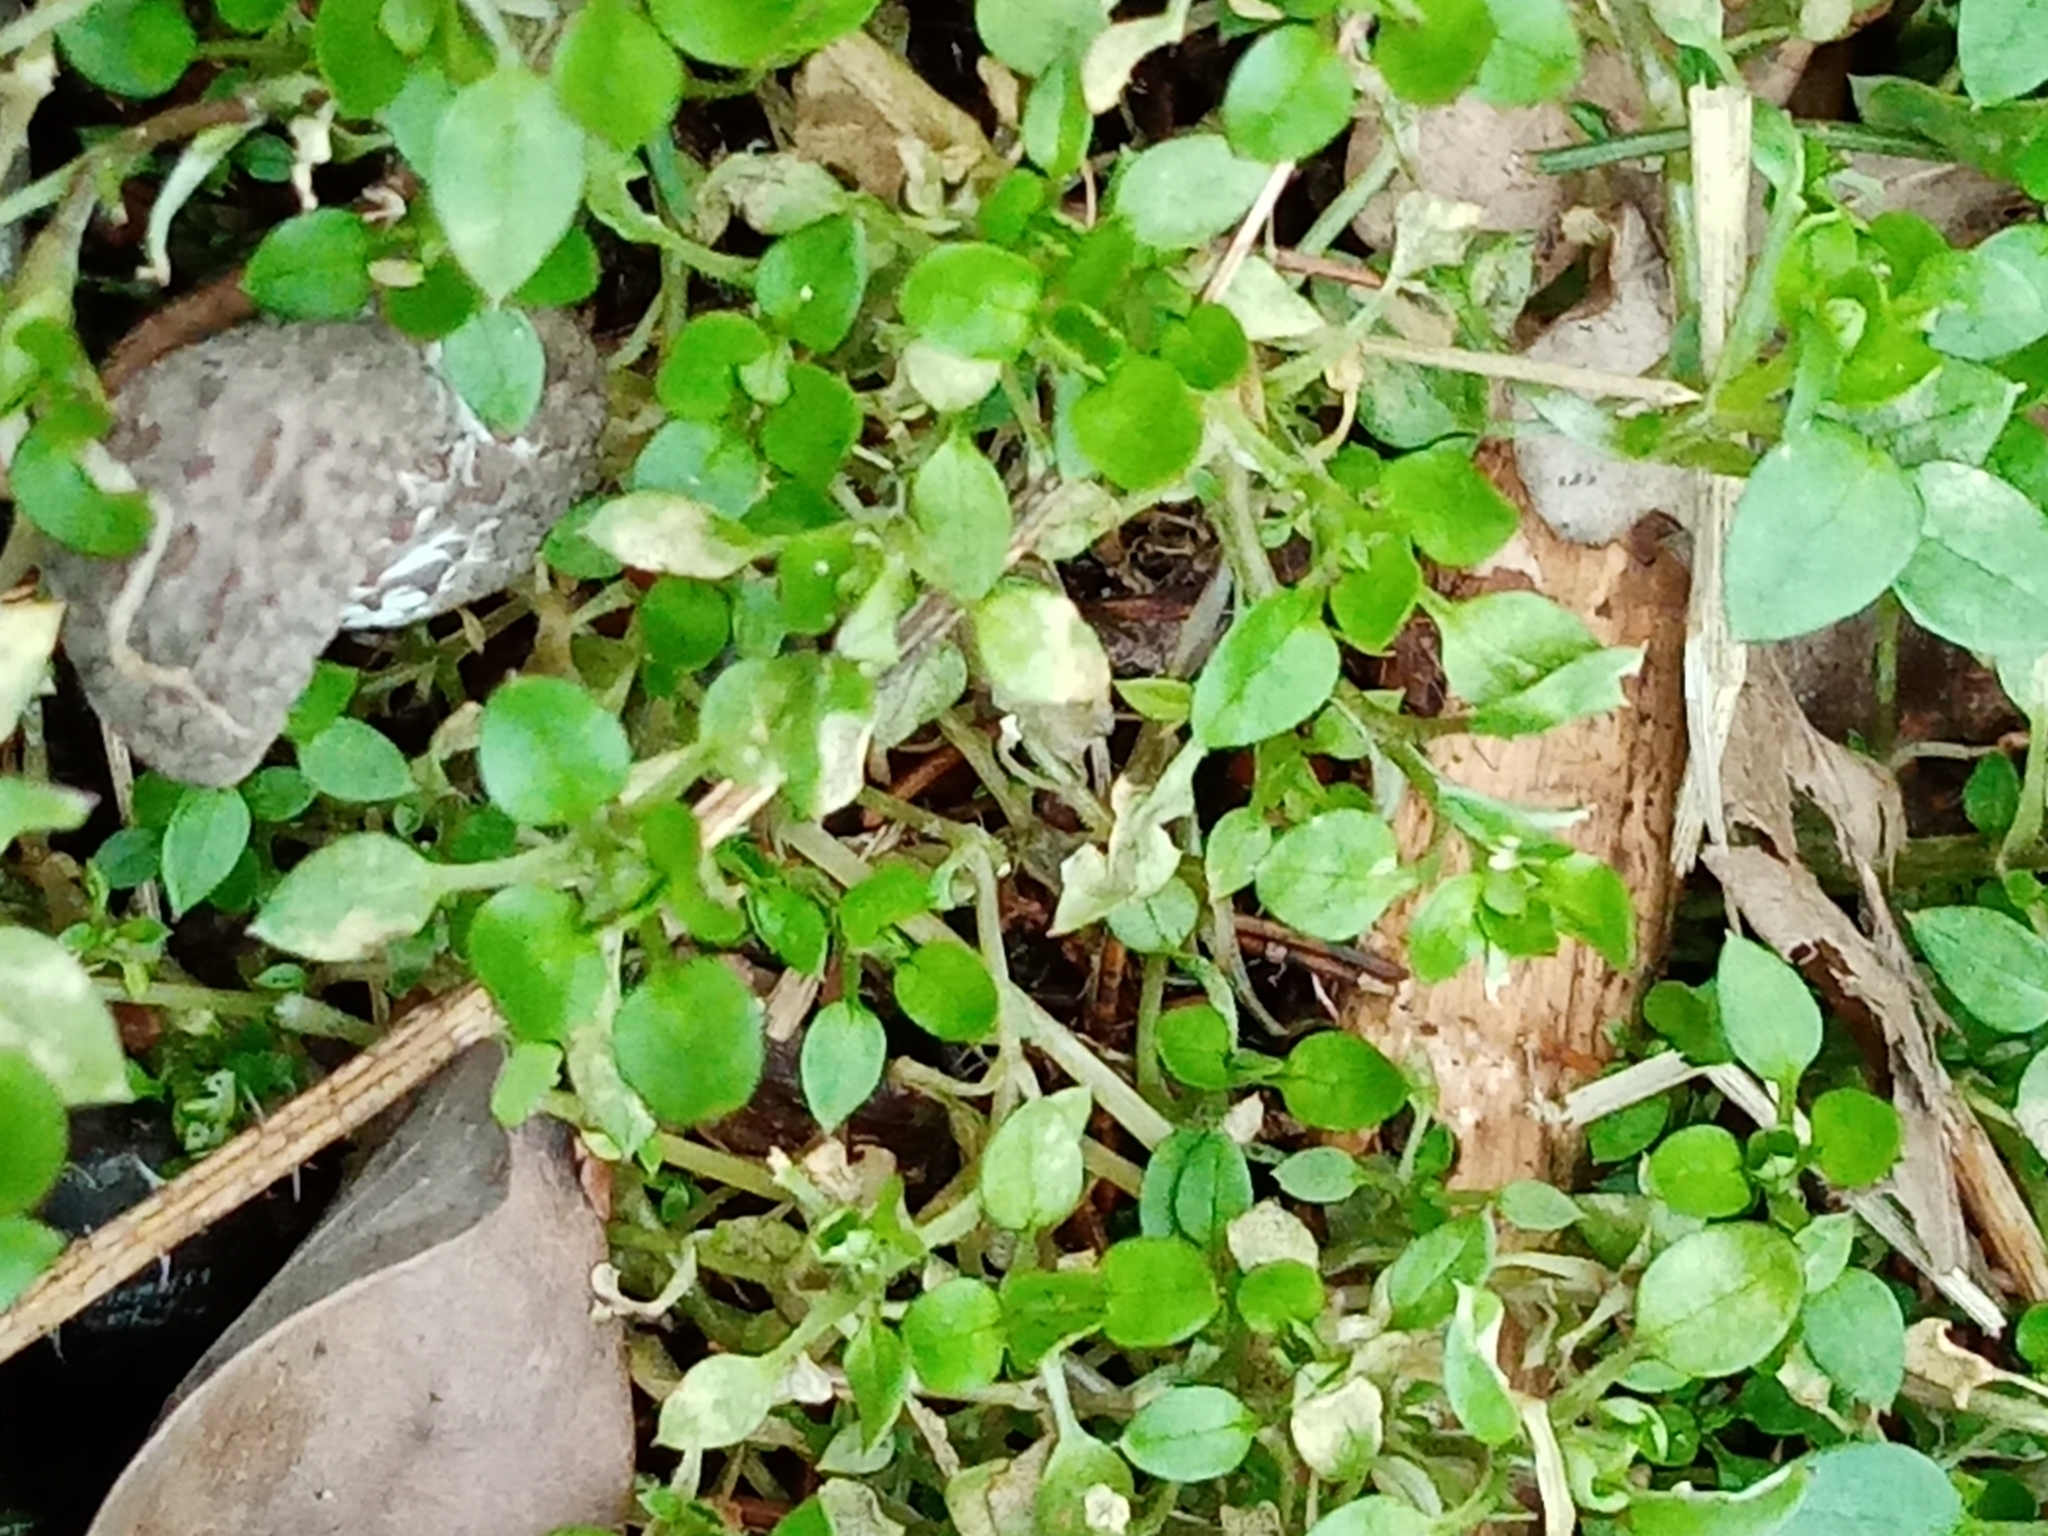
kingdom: Plantae
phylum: Tracheophyta
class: Magnoliopsida
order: Caryophyllales
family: Caryophyllaceae
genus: Stellaria
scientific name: Stellaria media
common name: Common chickweed
